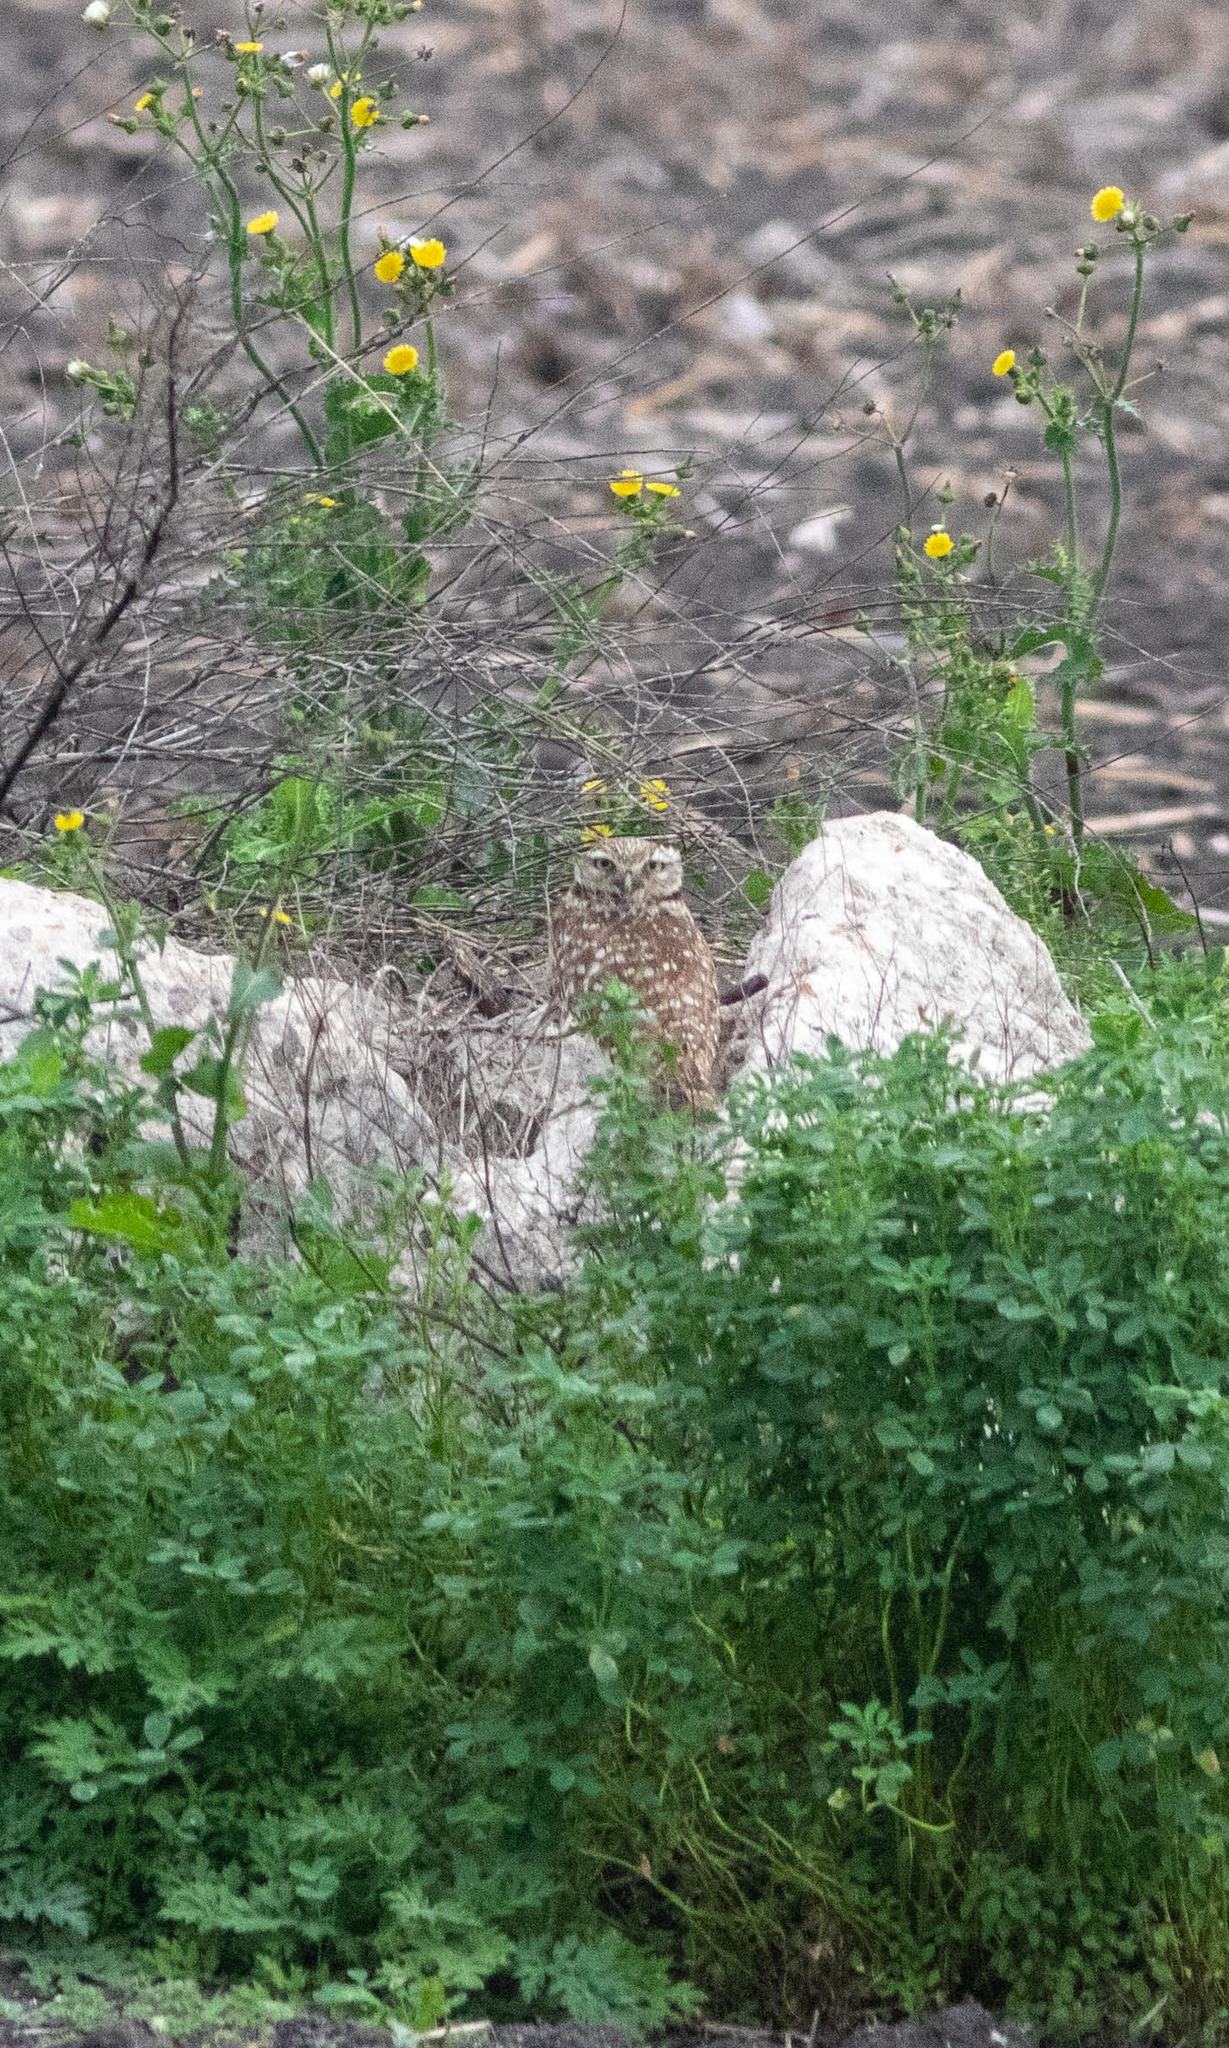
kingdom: Animalia
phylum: Chordata
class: Aves
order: Strigiformes
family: Strigidae
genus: Athene
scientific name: Athene cunicularia
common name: Burrowing owl
